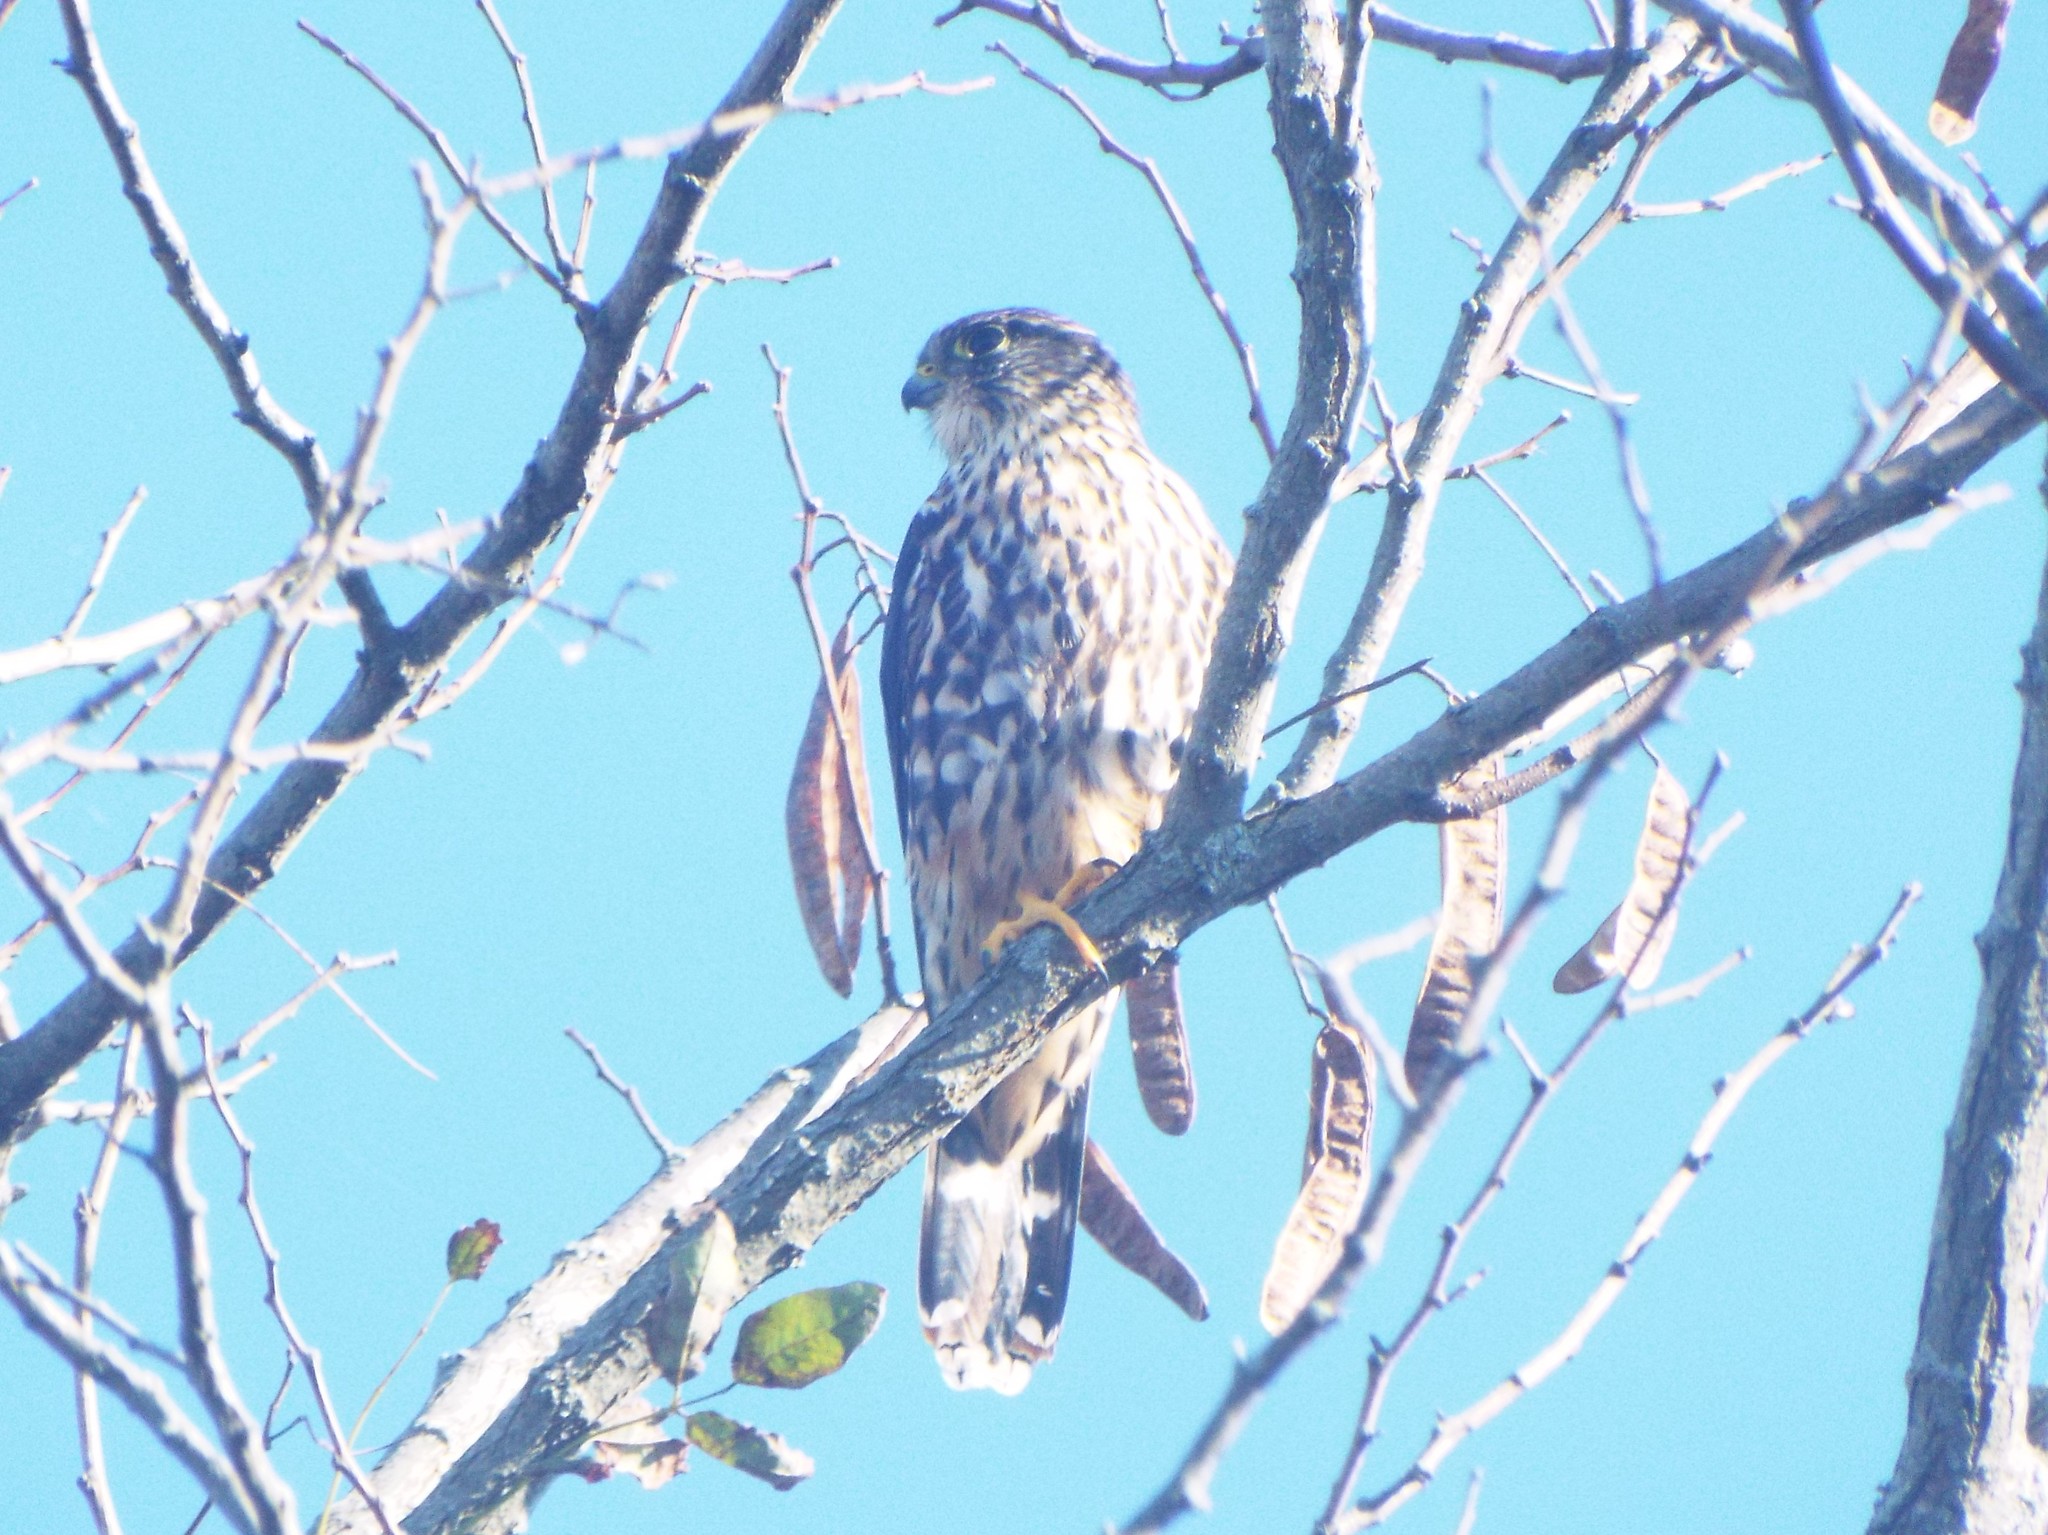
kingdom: Animalia
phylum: Chordata
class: Aves
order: Falconiformes
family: Falconidae
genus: Falco
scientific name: Falco columbarius
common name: Merlin
